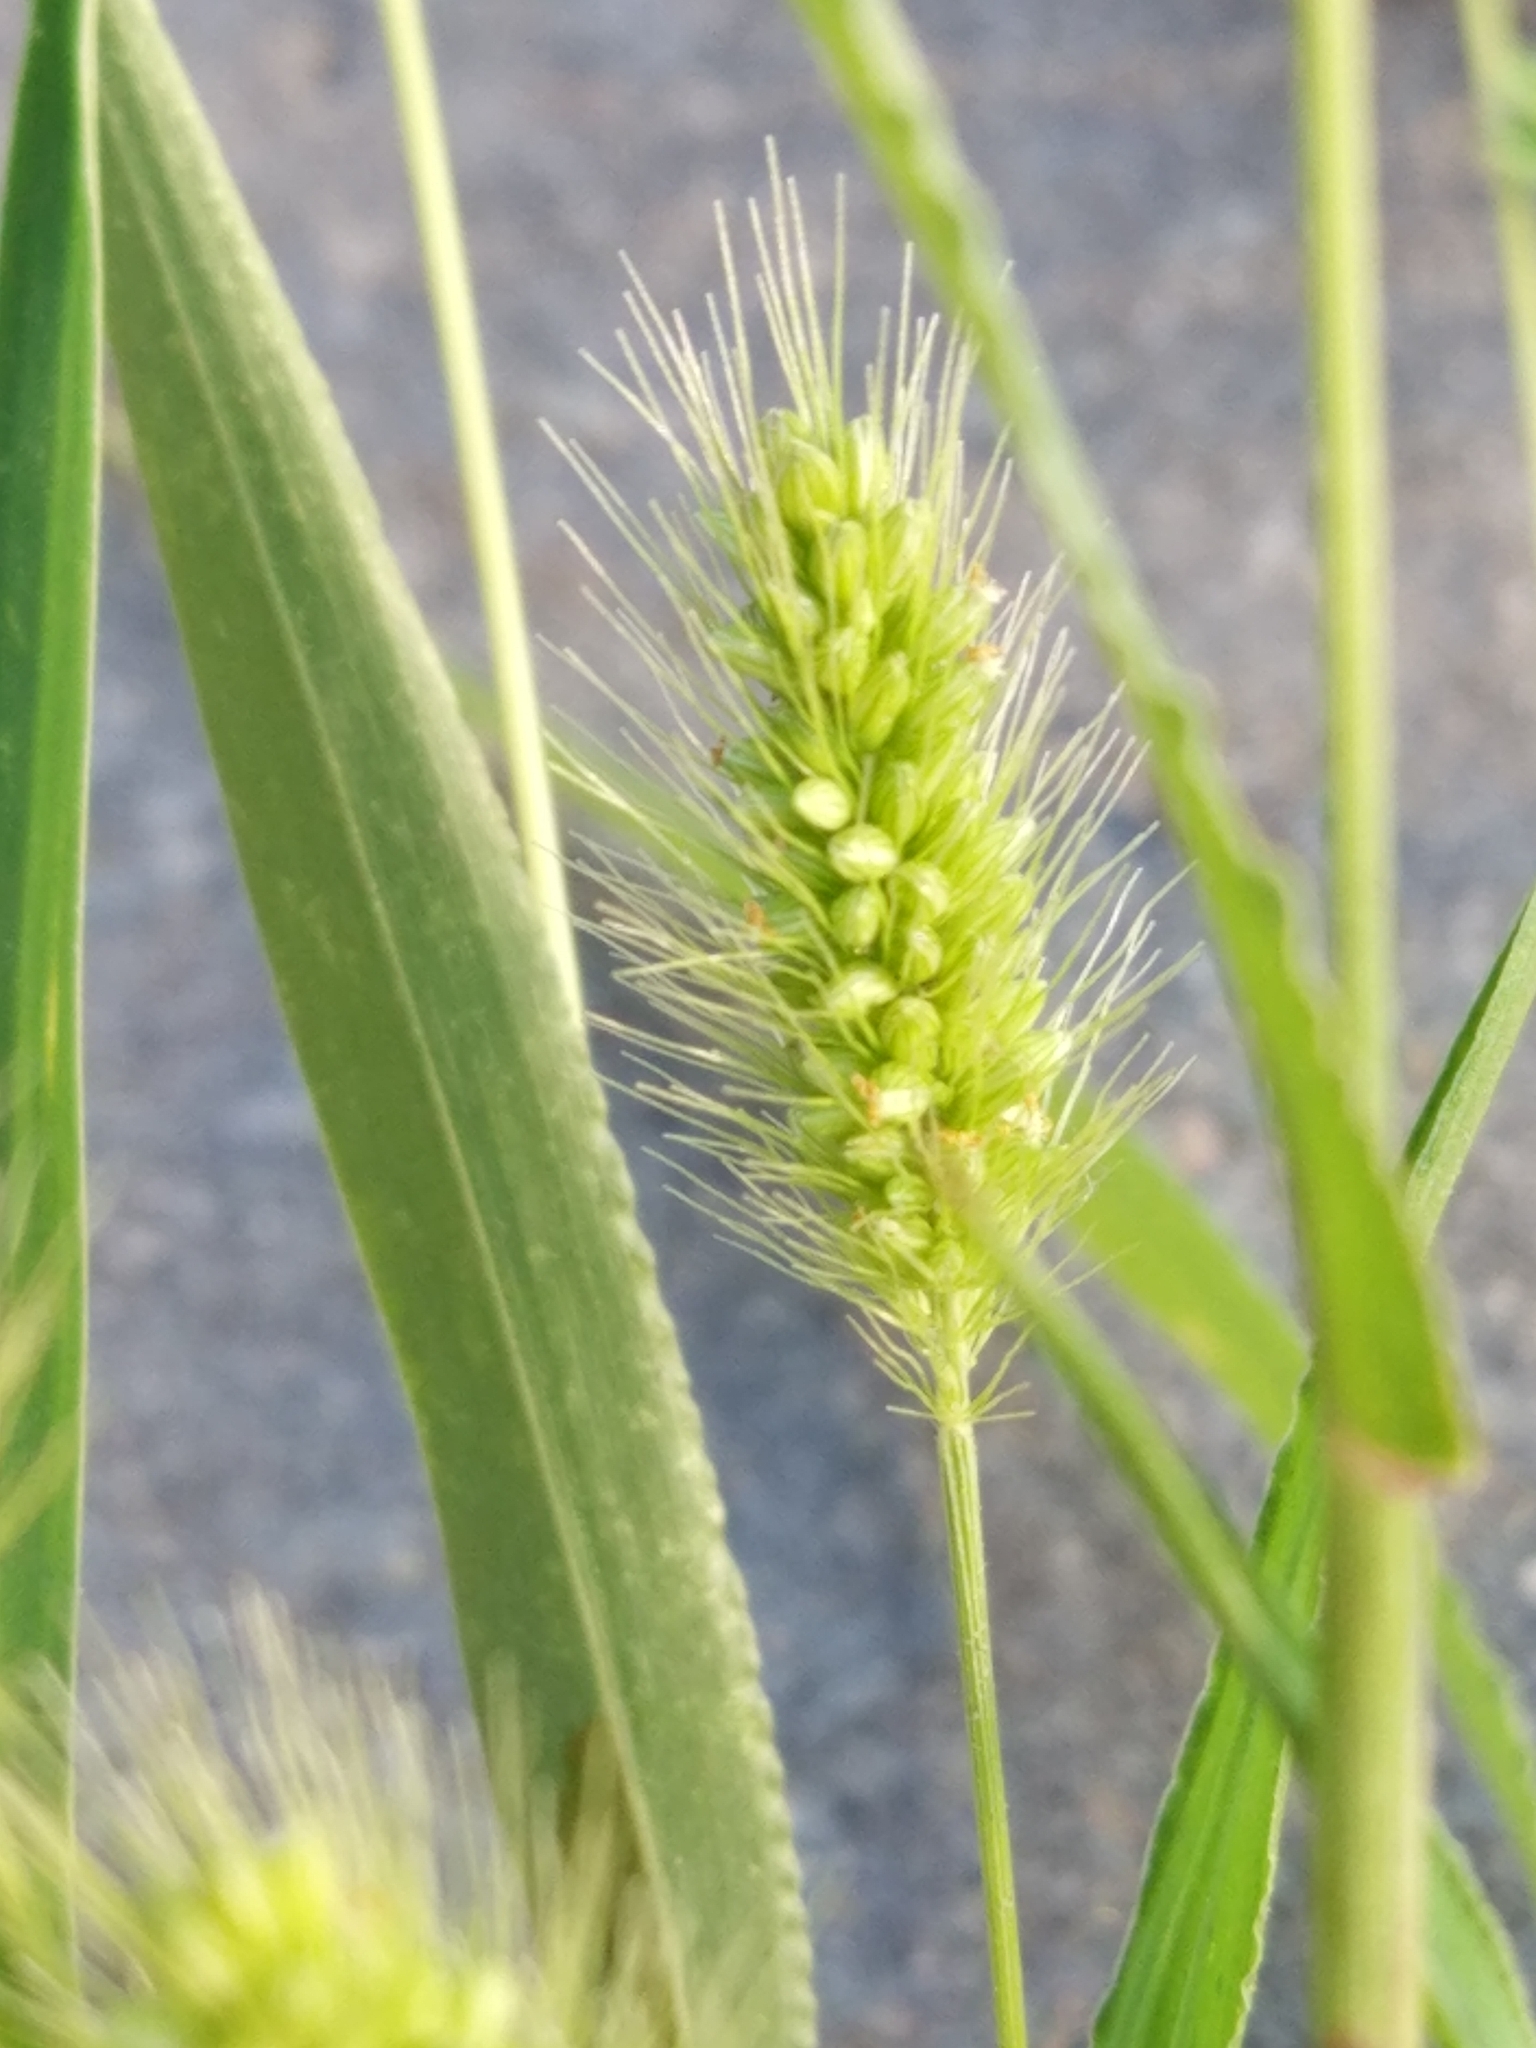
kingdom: Plantae
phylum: Tracheophyta
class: Liliopsida
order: Poales
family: Poaceae
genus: Setaria
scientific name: Setaria viridis
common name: Green bristlegrass
